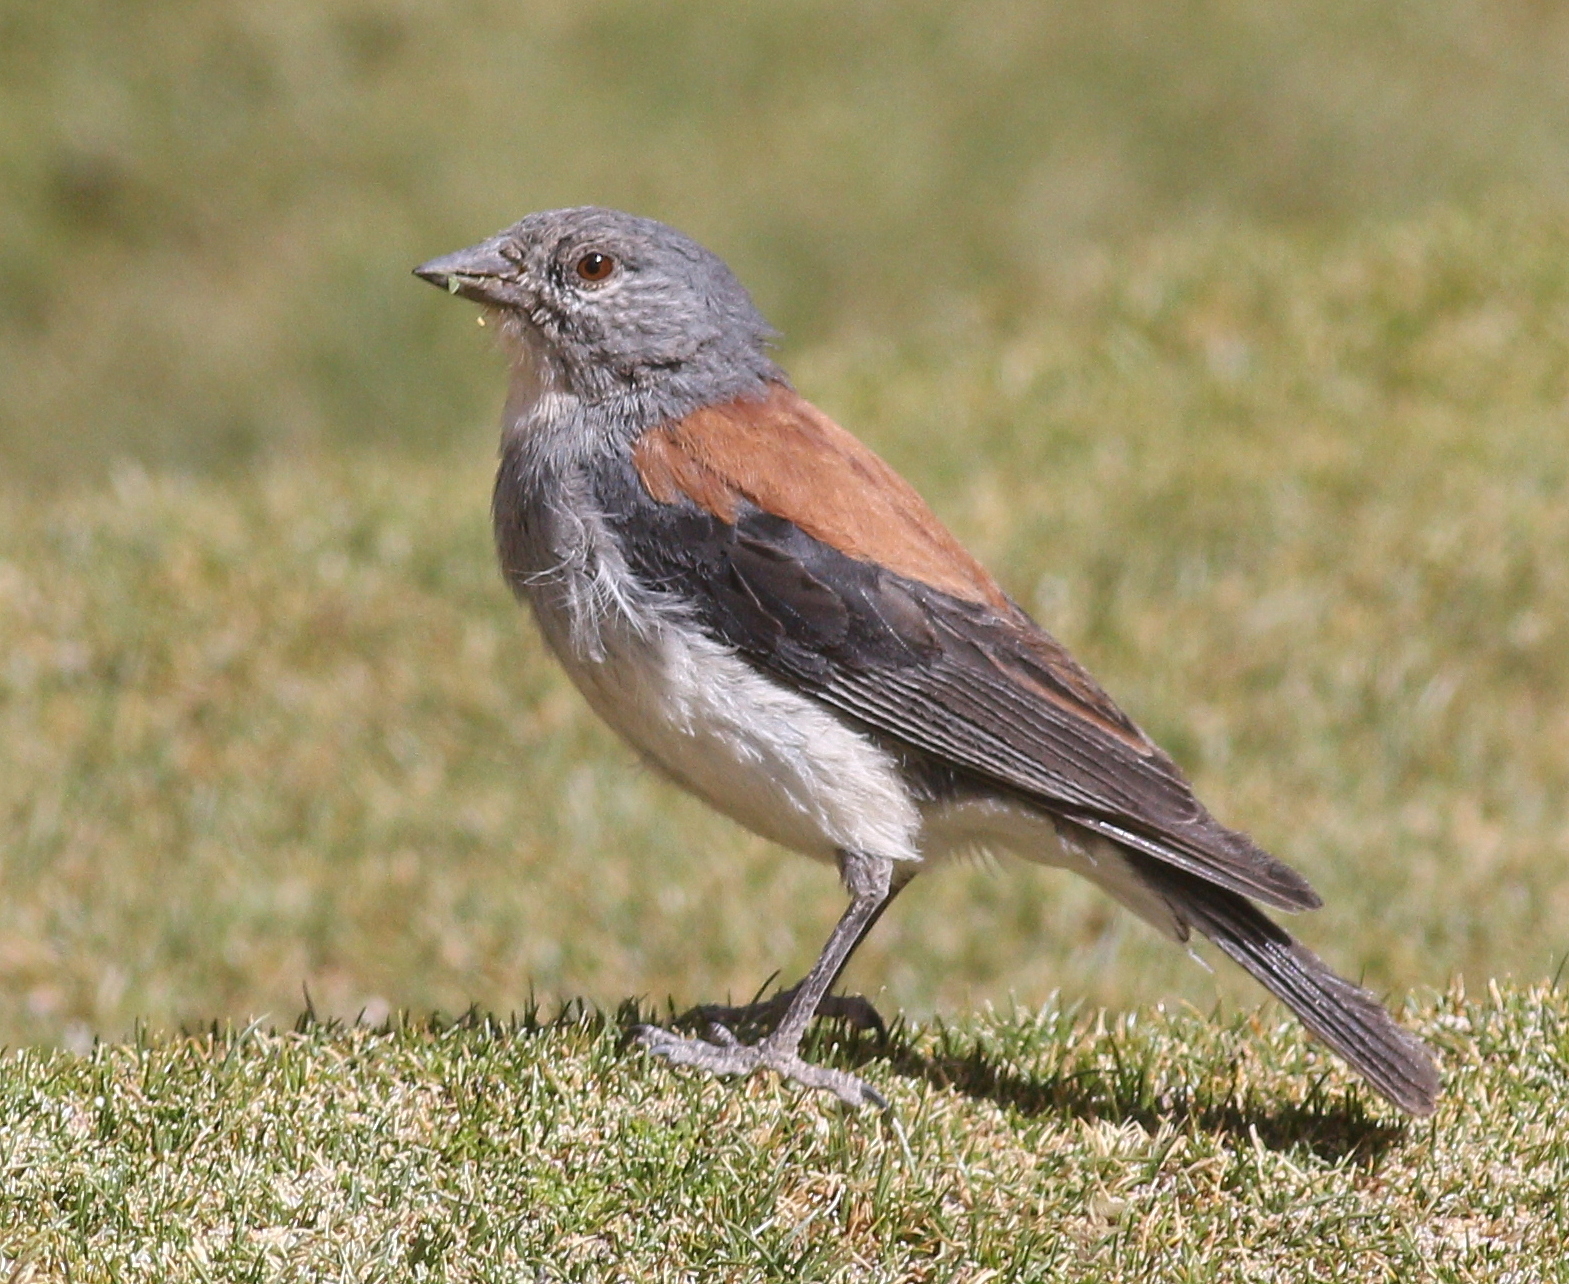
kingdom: Animalia
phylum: Chordata
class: Aves
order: Passeriformes
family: Thraupidae
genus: Idiopsar
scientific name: Idiopsar dorsalis
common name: Red-backed sierra finch
